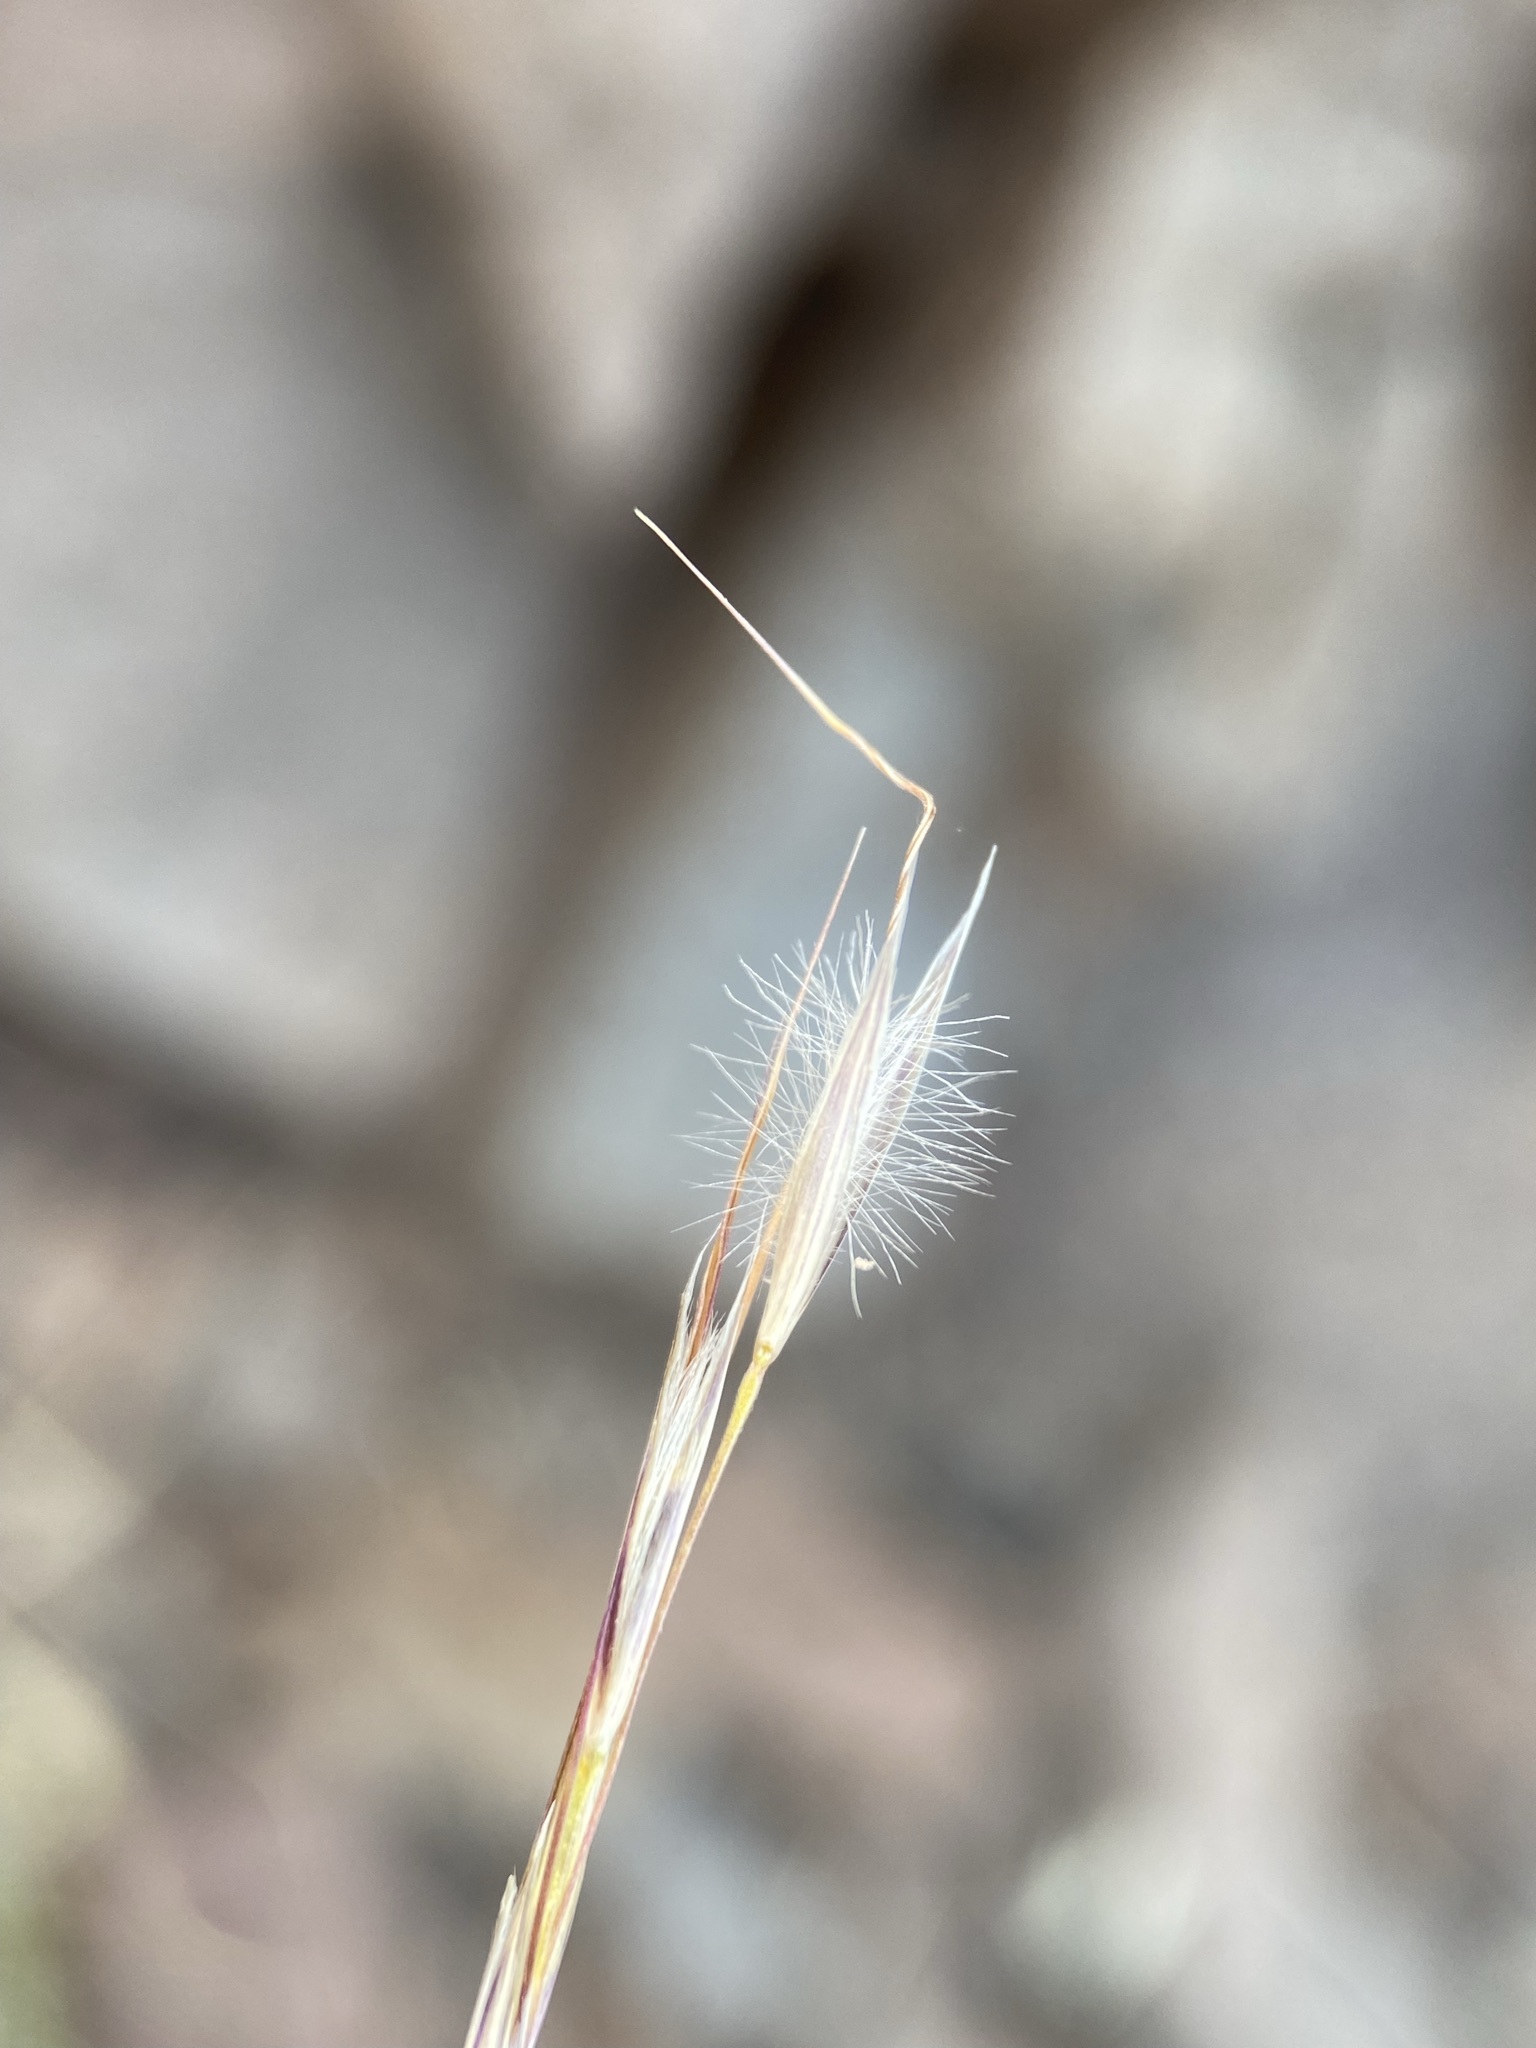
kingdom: Plantae
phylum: Tracheophyta
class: Liliopsida
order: Poales
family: Poaceae
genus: Eriocoma
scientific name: Eriocoma pinetorum
